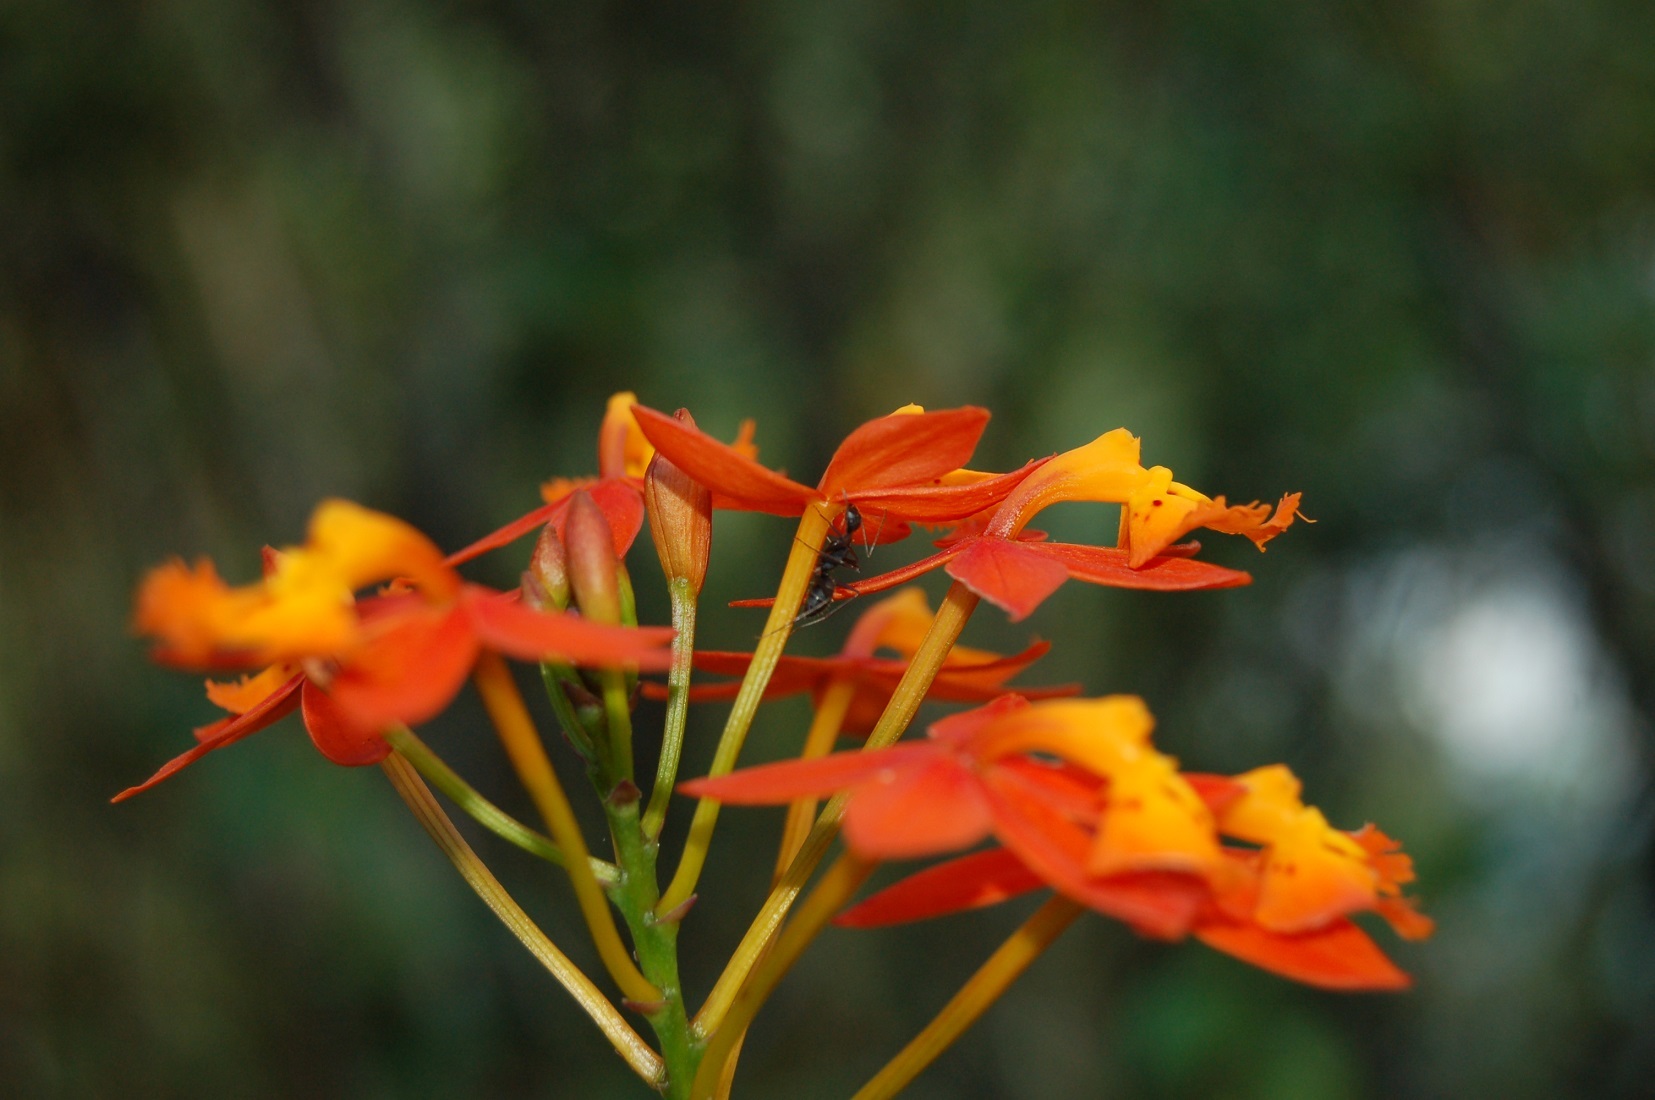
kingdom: Plantae
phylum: Tracheophyta
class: Liliopsida
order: Asparagales
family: Orchidaceae
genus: Epidendrum
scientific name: Epidendrum radicans
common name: Fire star orchid
